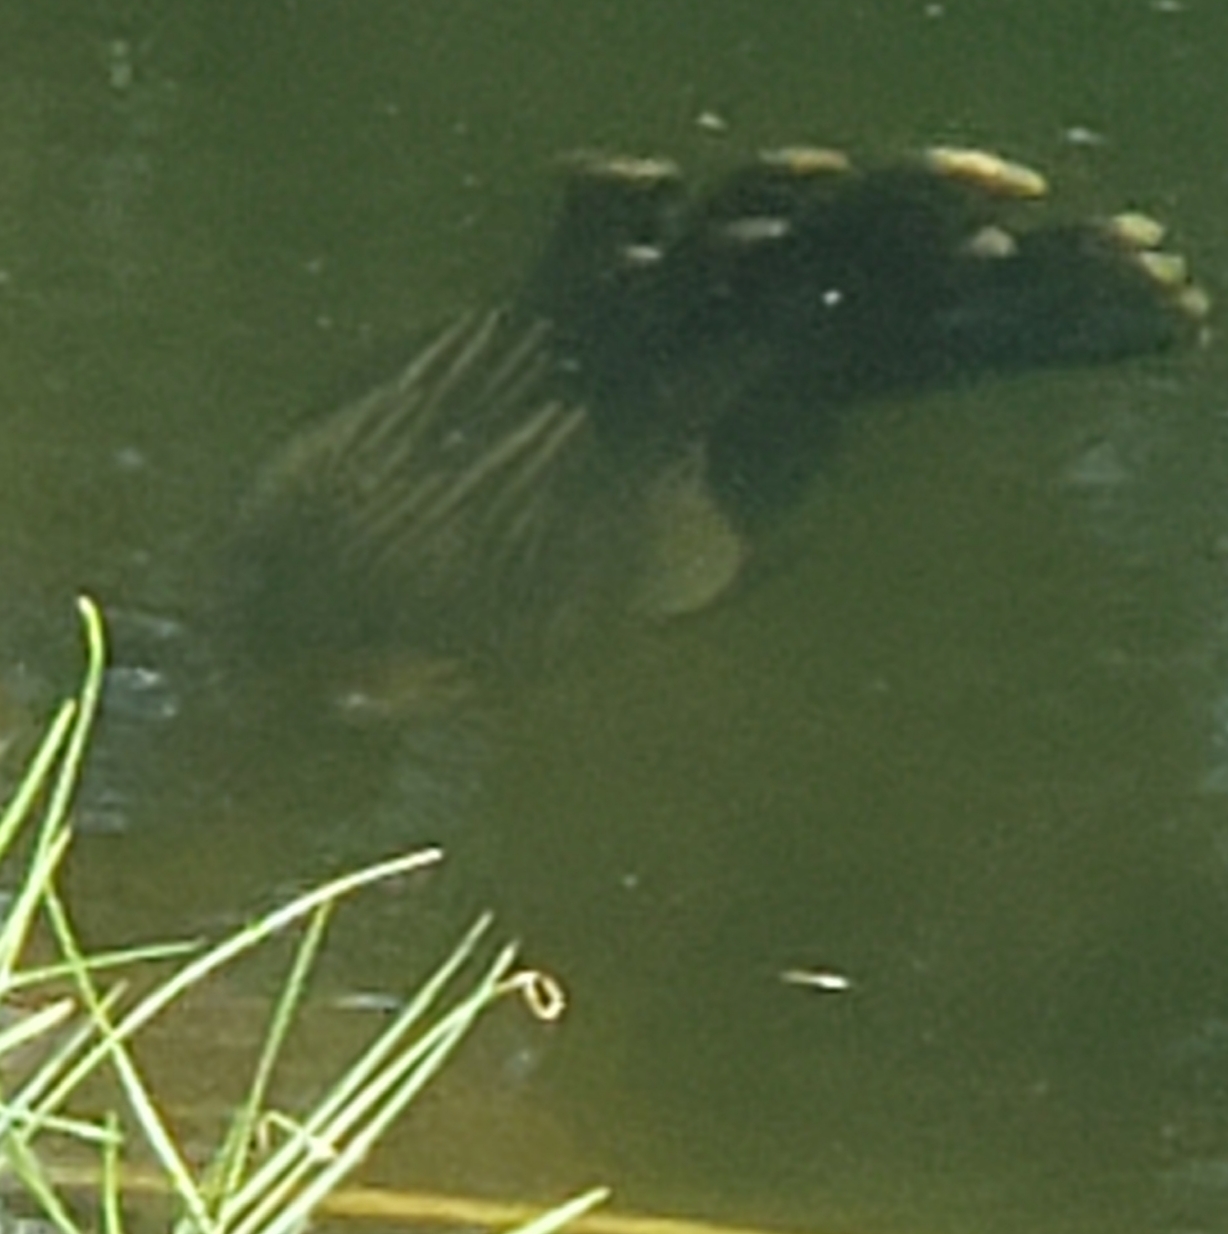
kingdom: Animalia
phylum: Chordata
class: Aves
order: Suliformes
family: Anhingidae
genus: Anhinga
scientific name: Anhinga anhinga
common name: Anhinga
